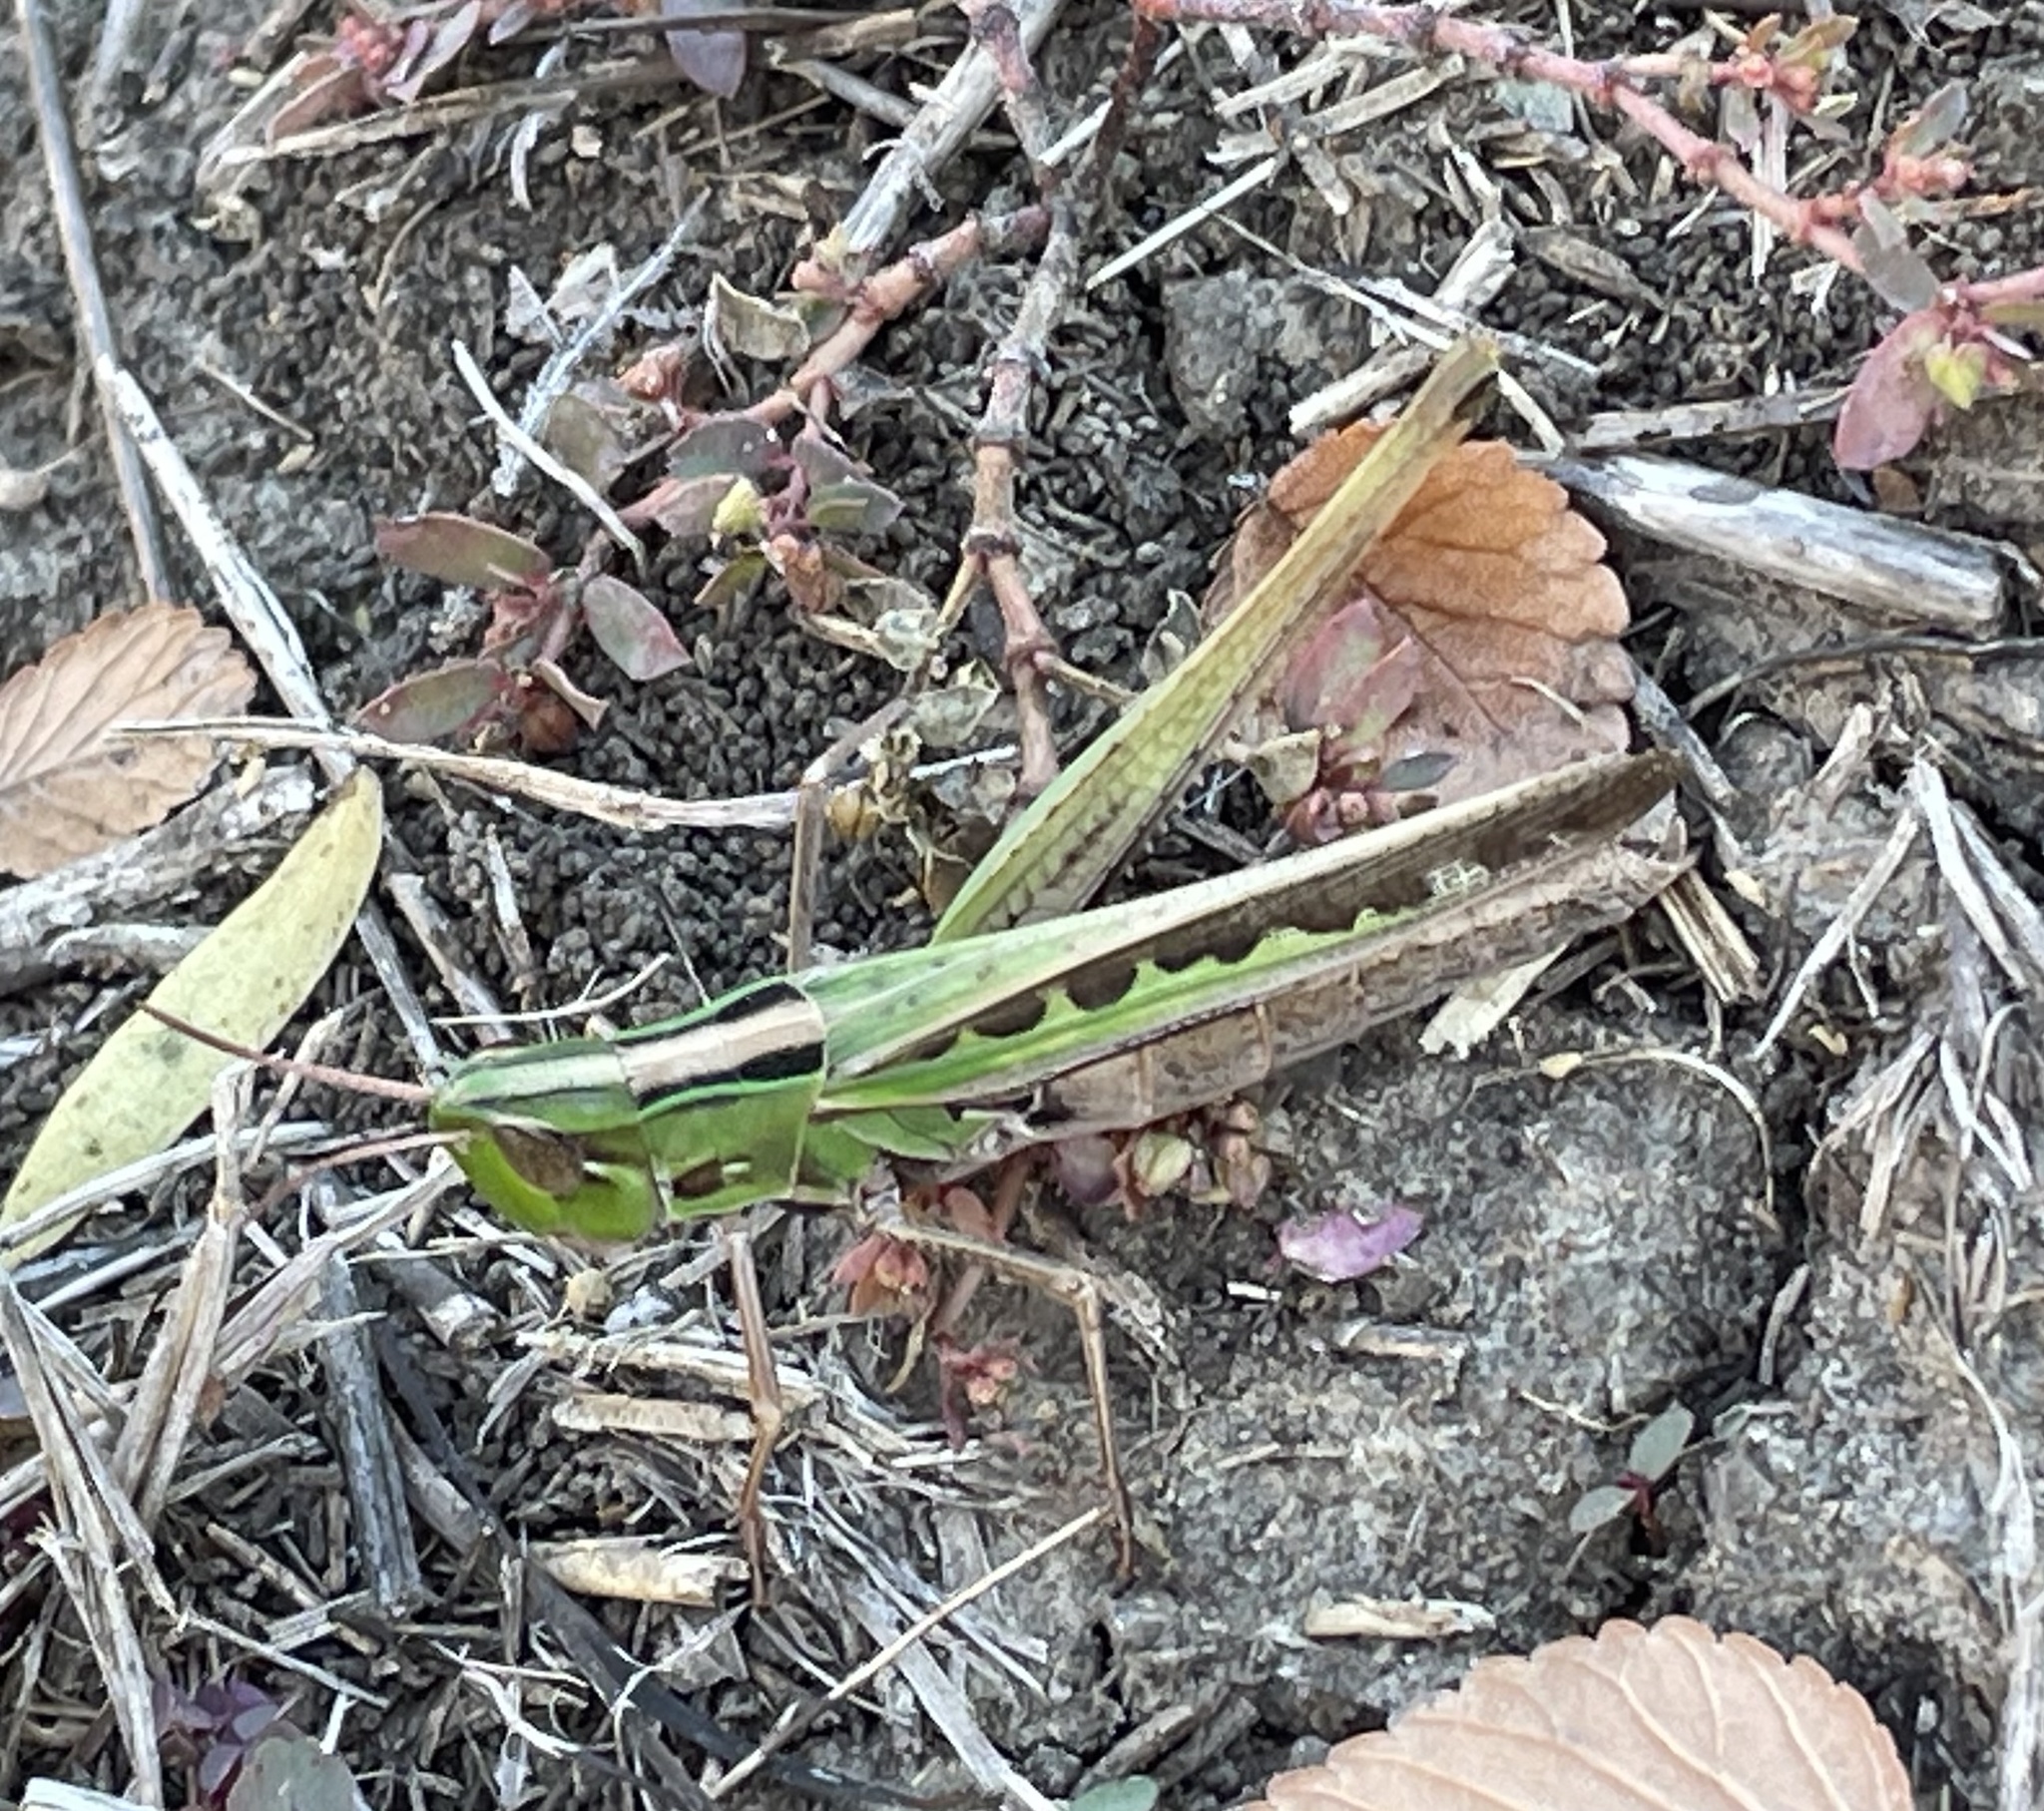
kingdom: Animalia
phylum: Arthropoda
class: Insecta
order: Orthoptera
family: Acrididae
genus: Syrbula
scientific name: Syrbula admirabilis
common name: Handsome grasshopper
